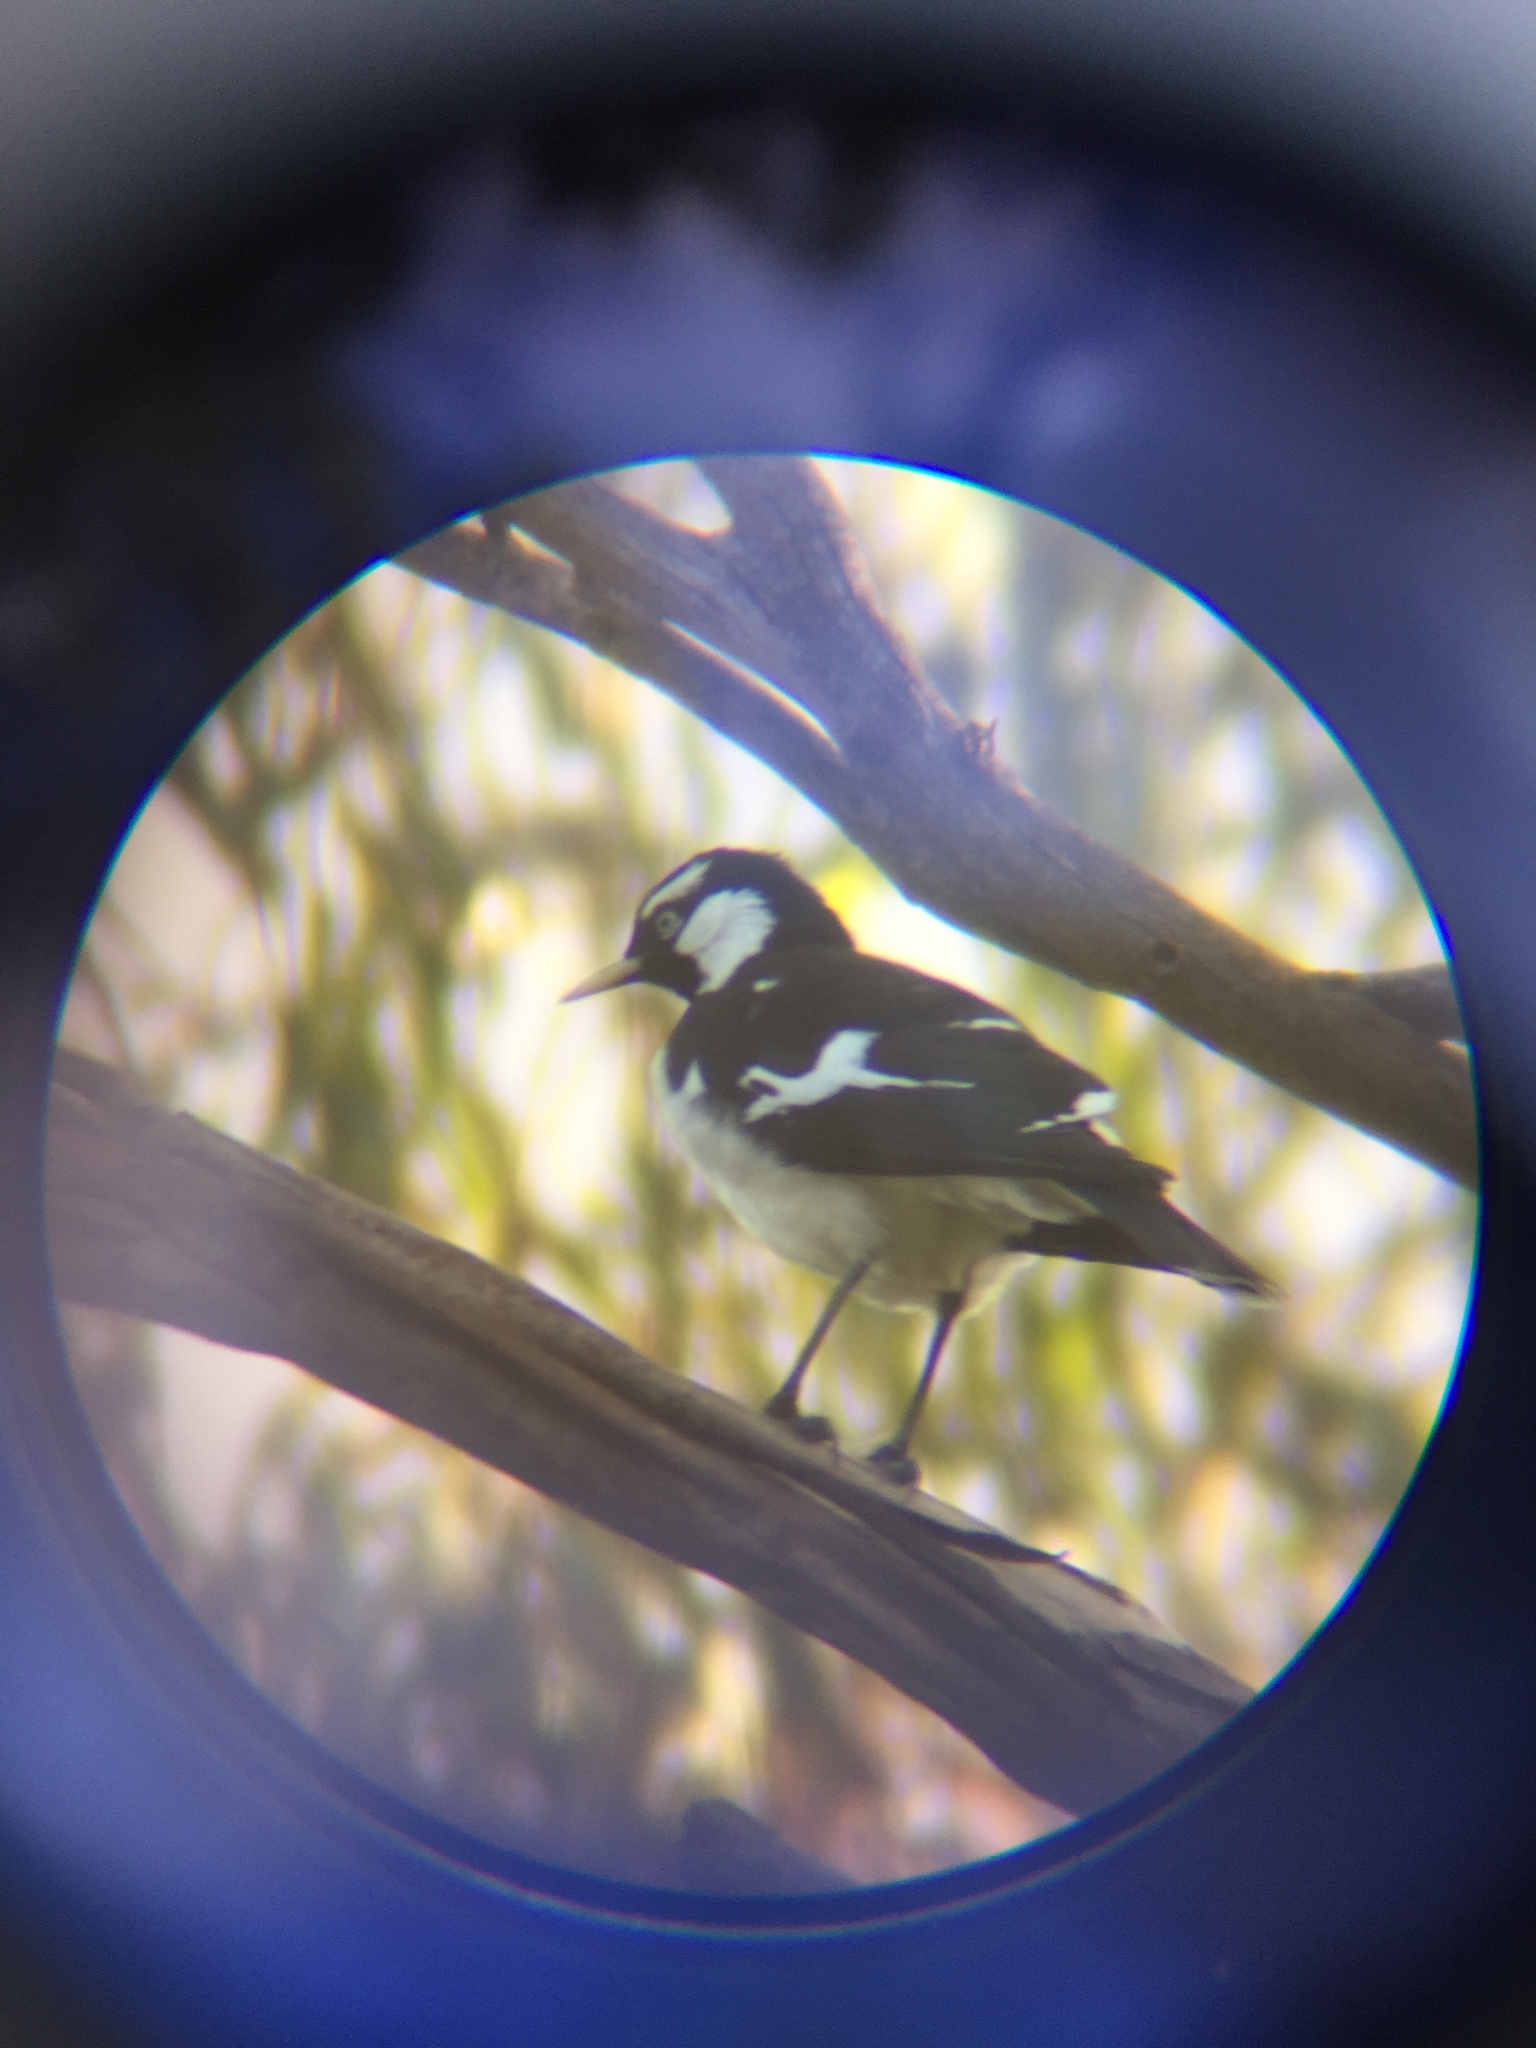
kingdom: Animalia
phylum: Chordata
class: Aves
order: Passeriformes
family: Monarchidae
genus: Grallina
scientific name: Grallina cyanoleuca
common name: Magpie-lark
